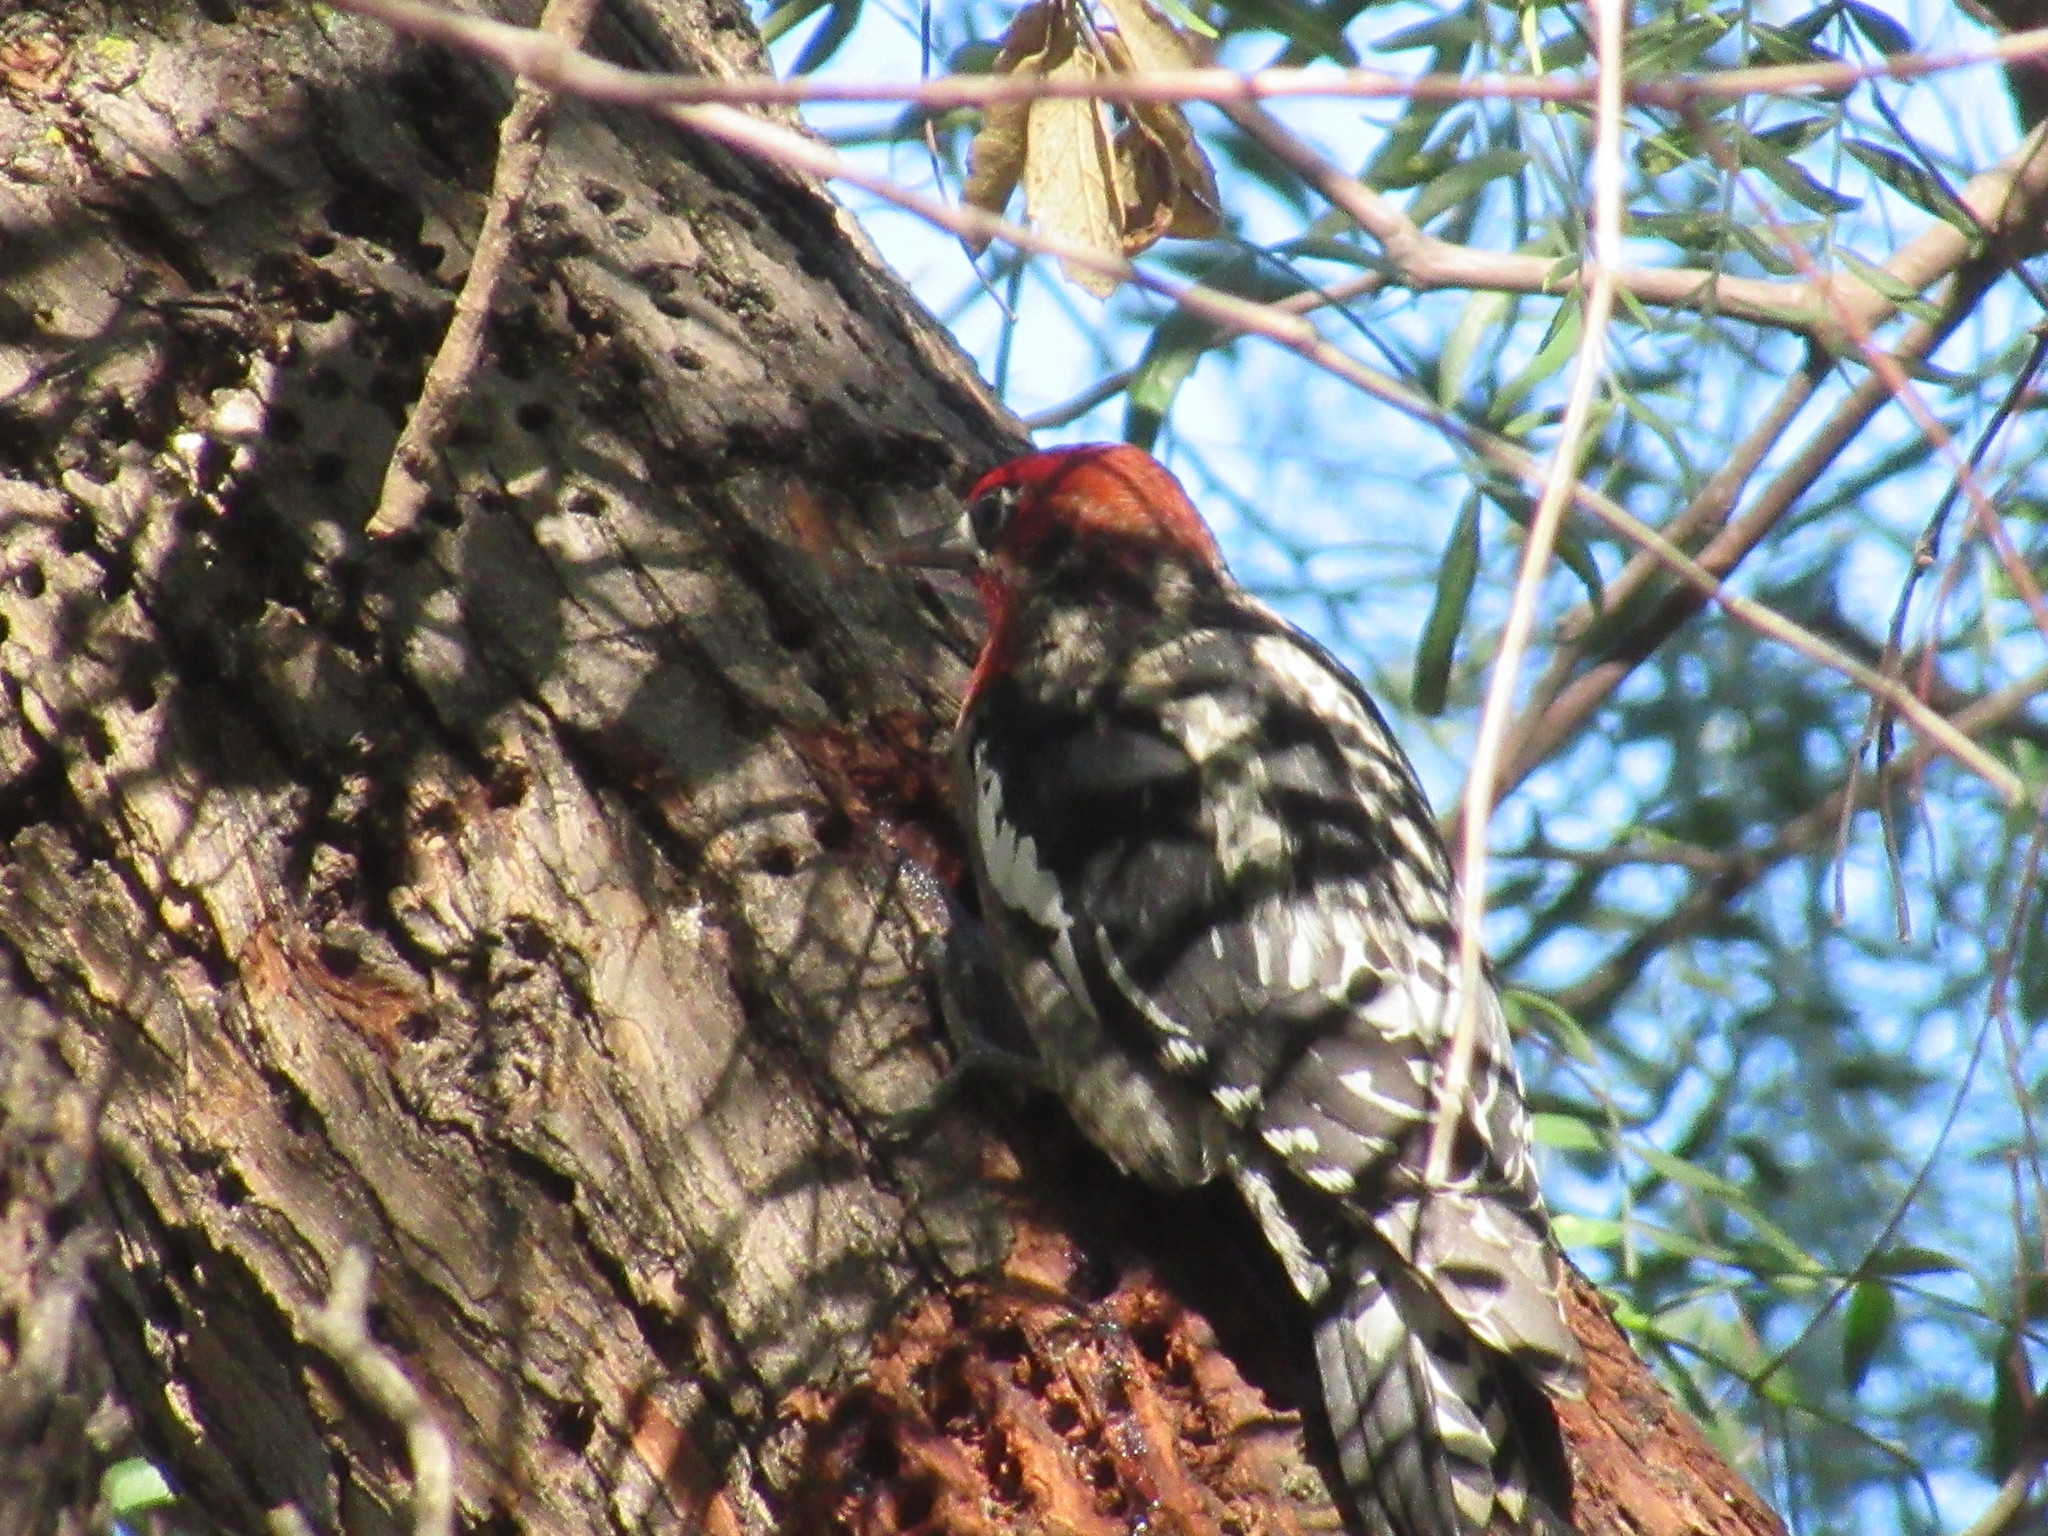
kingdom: Animalia
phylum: Chordata
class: Aves
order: Piciformes
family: Picidae
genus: Sphyrapicus
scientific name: Sphyrapicus ruber
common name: Red-breasted sapsucker
